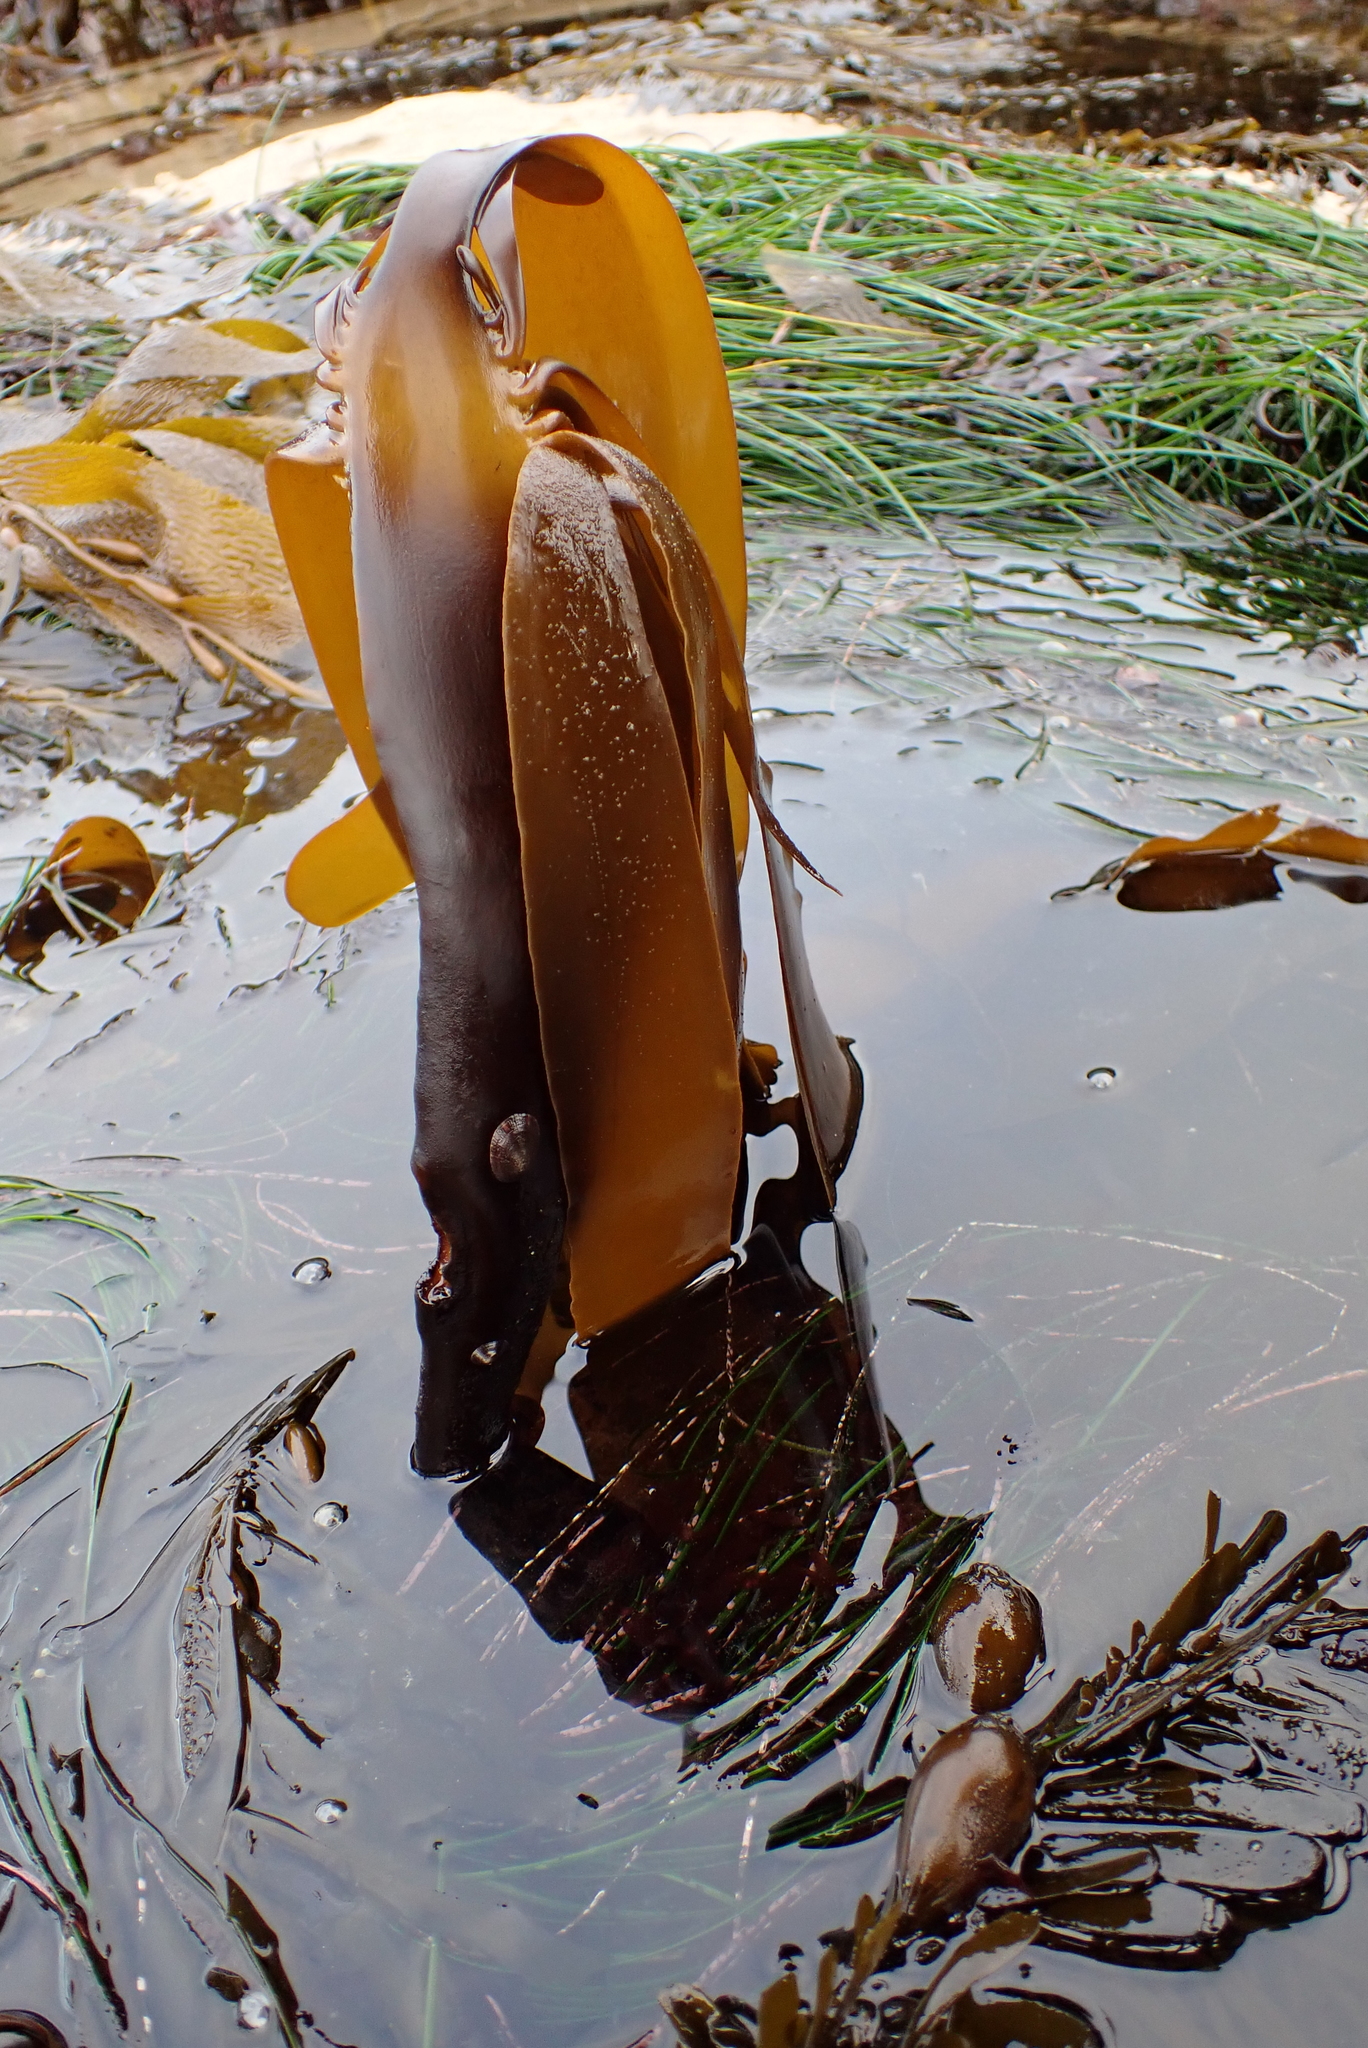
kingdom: Chromista
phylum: Ochrophyta
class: Phaeophyceae
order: Laminariales
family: Alariaceae
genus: Pterygophora
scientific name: Pterygophora californica
